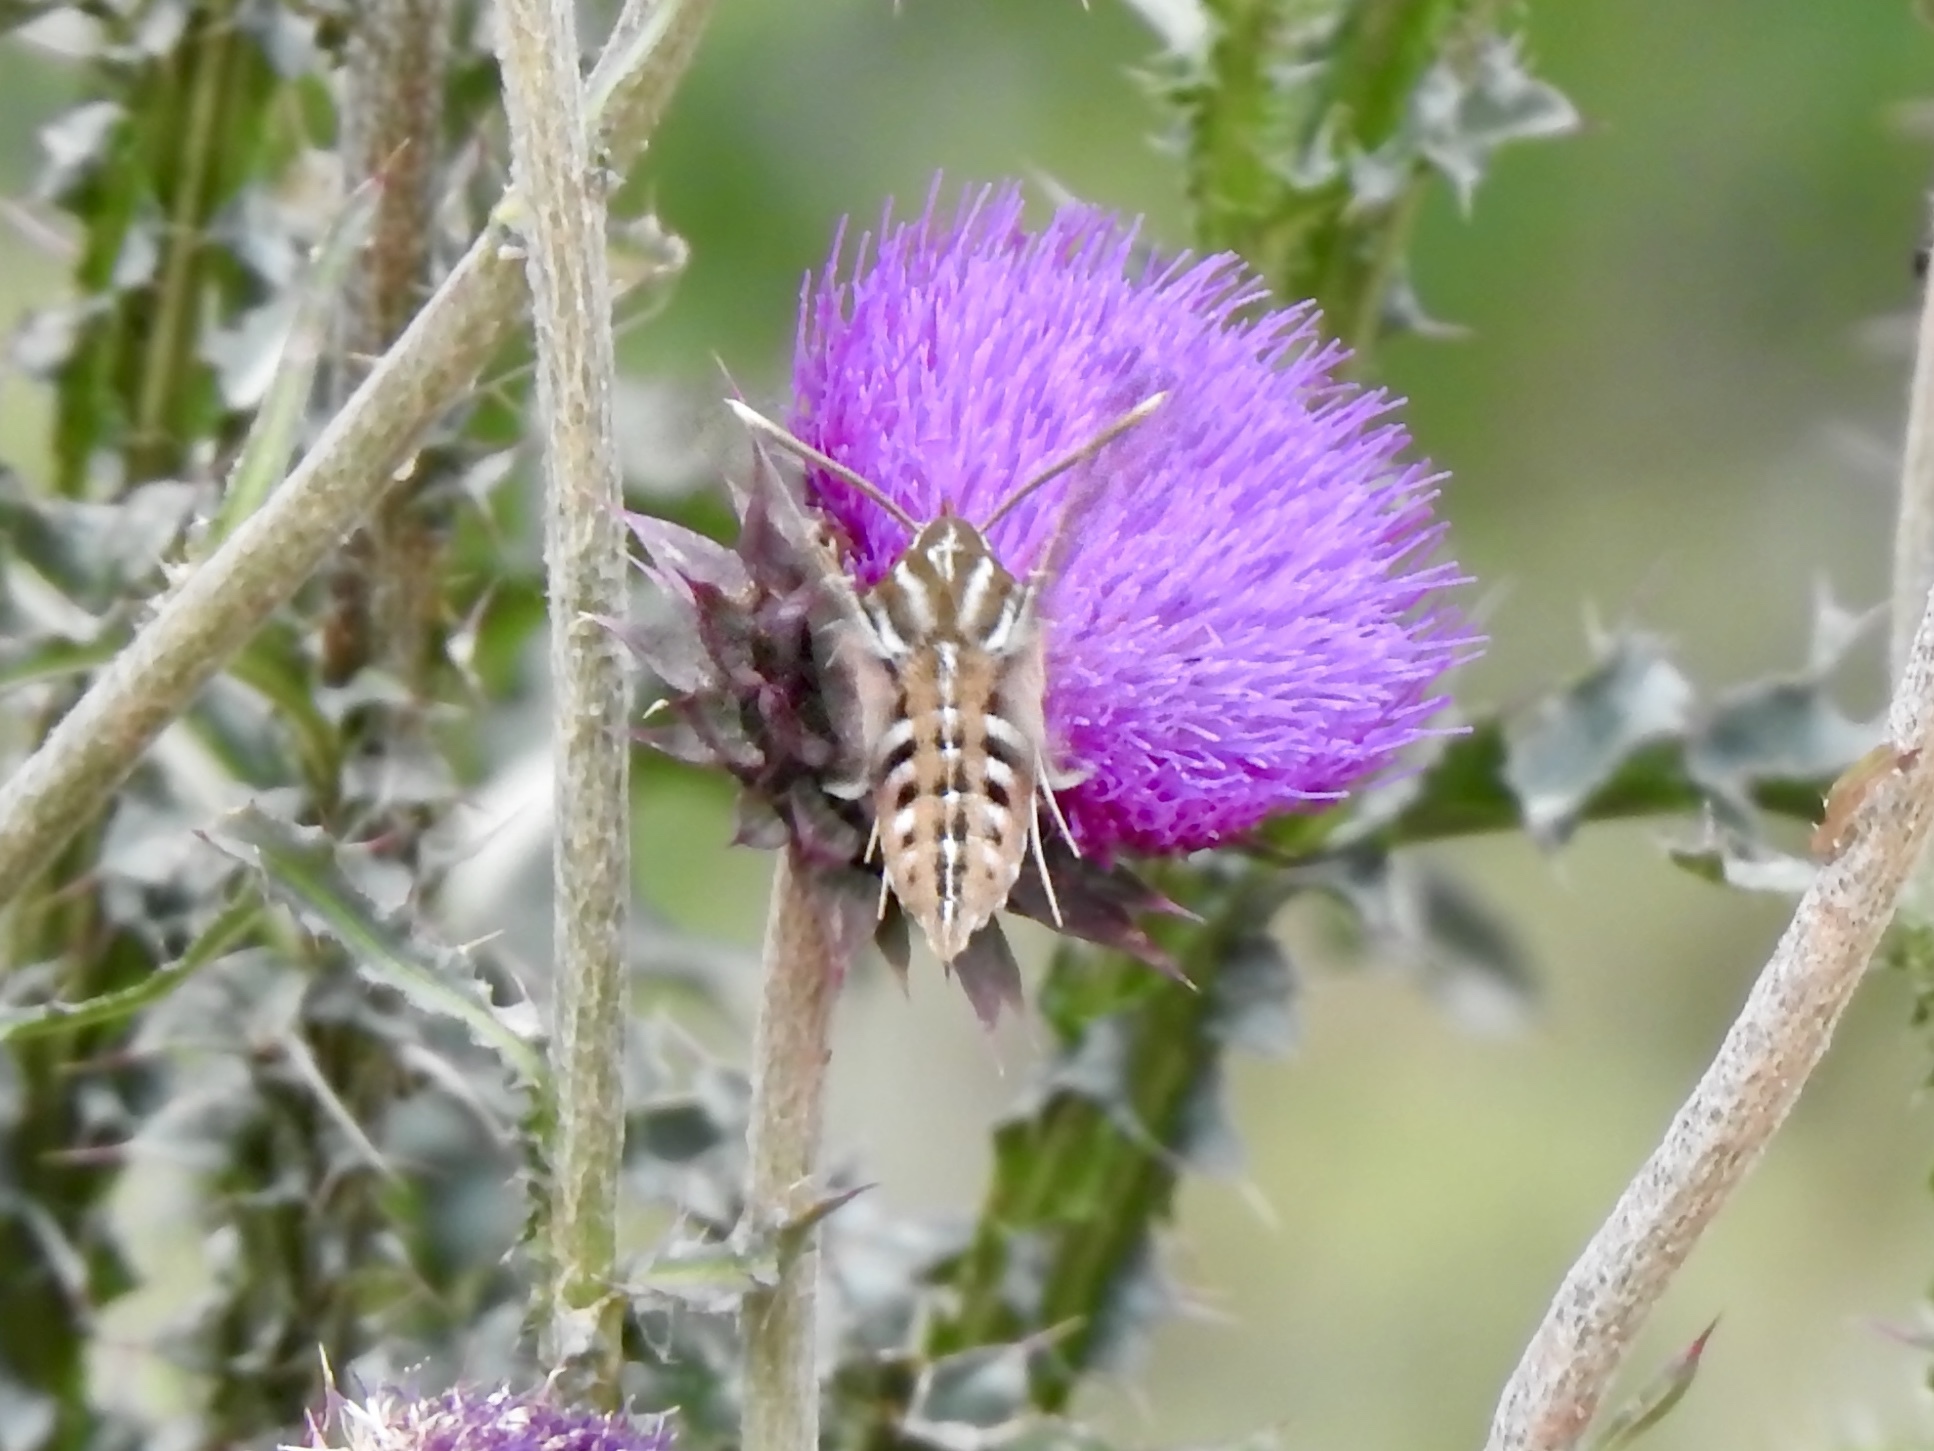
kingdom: Animalia
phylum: Arthropoda
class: Insecta
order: Lepidoptera
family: Sphingidae
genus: Hyles
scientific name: Hyles lineata
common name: White-lined sphinx
